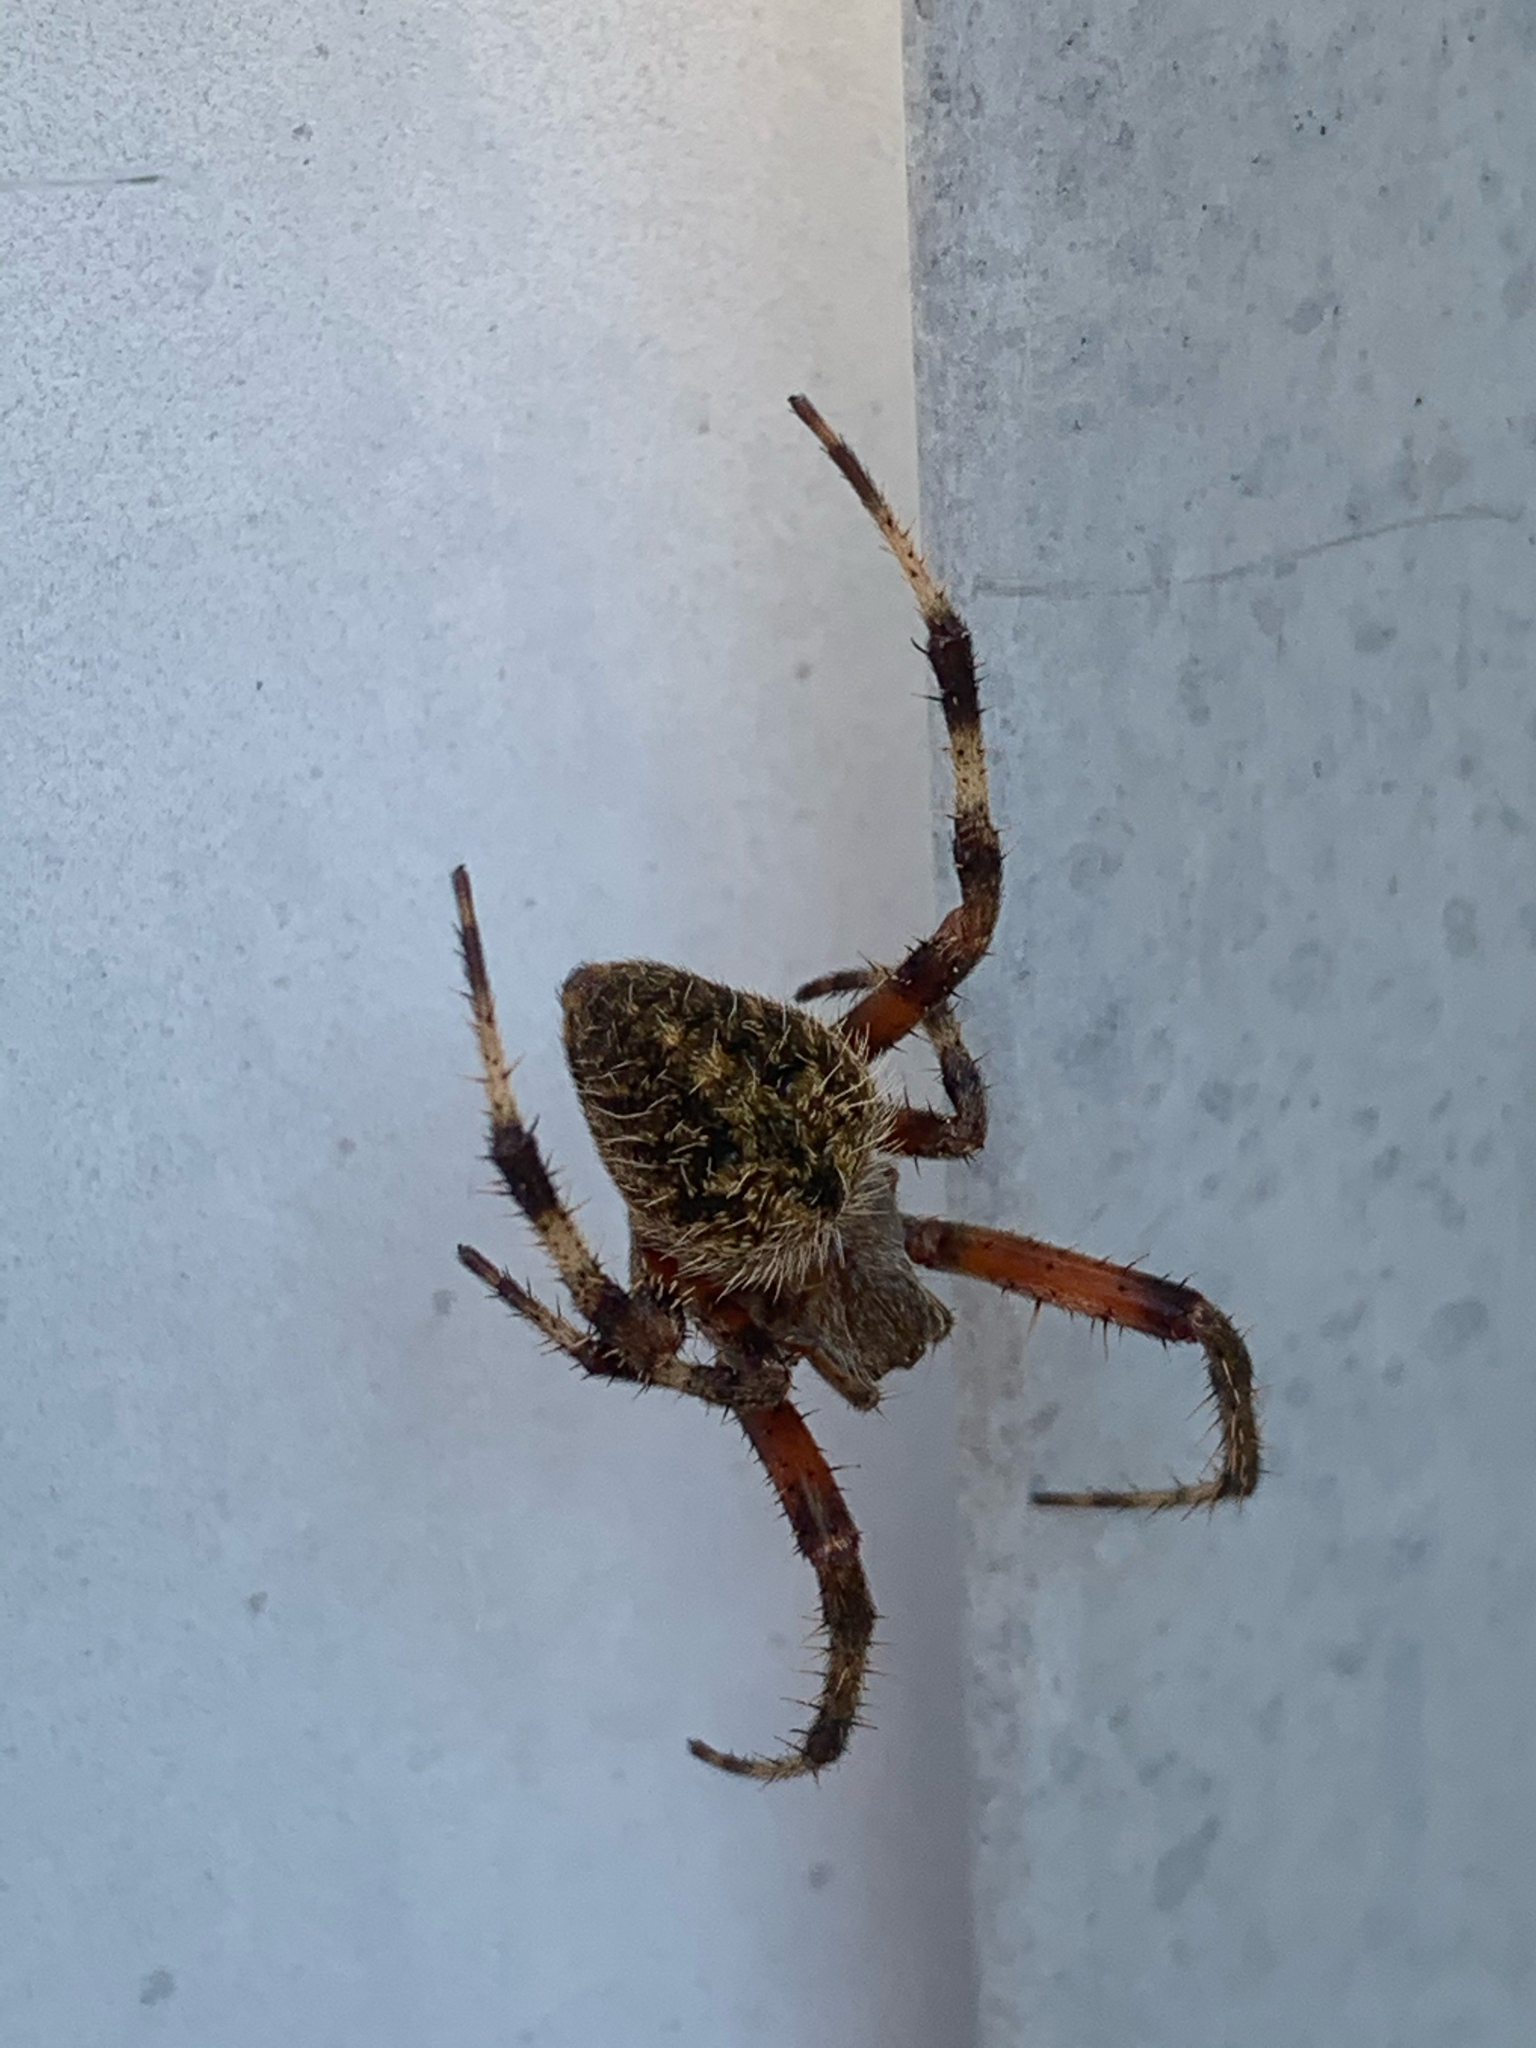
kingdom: Animalia
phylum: Arthropoda
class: Arachnida
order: Araneae
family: Araneidae
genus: Neoscona
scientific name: Neoscona crucifera
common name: Spotted orbweaver
